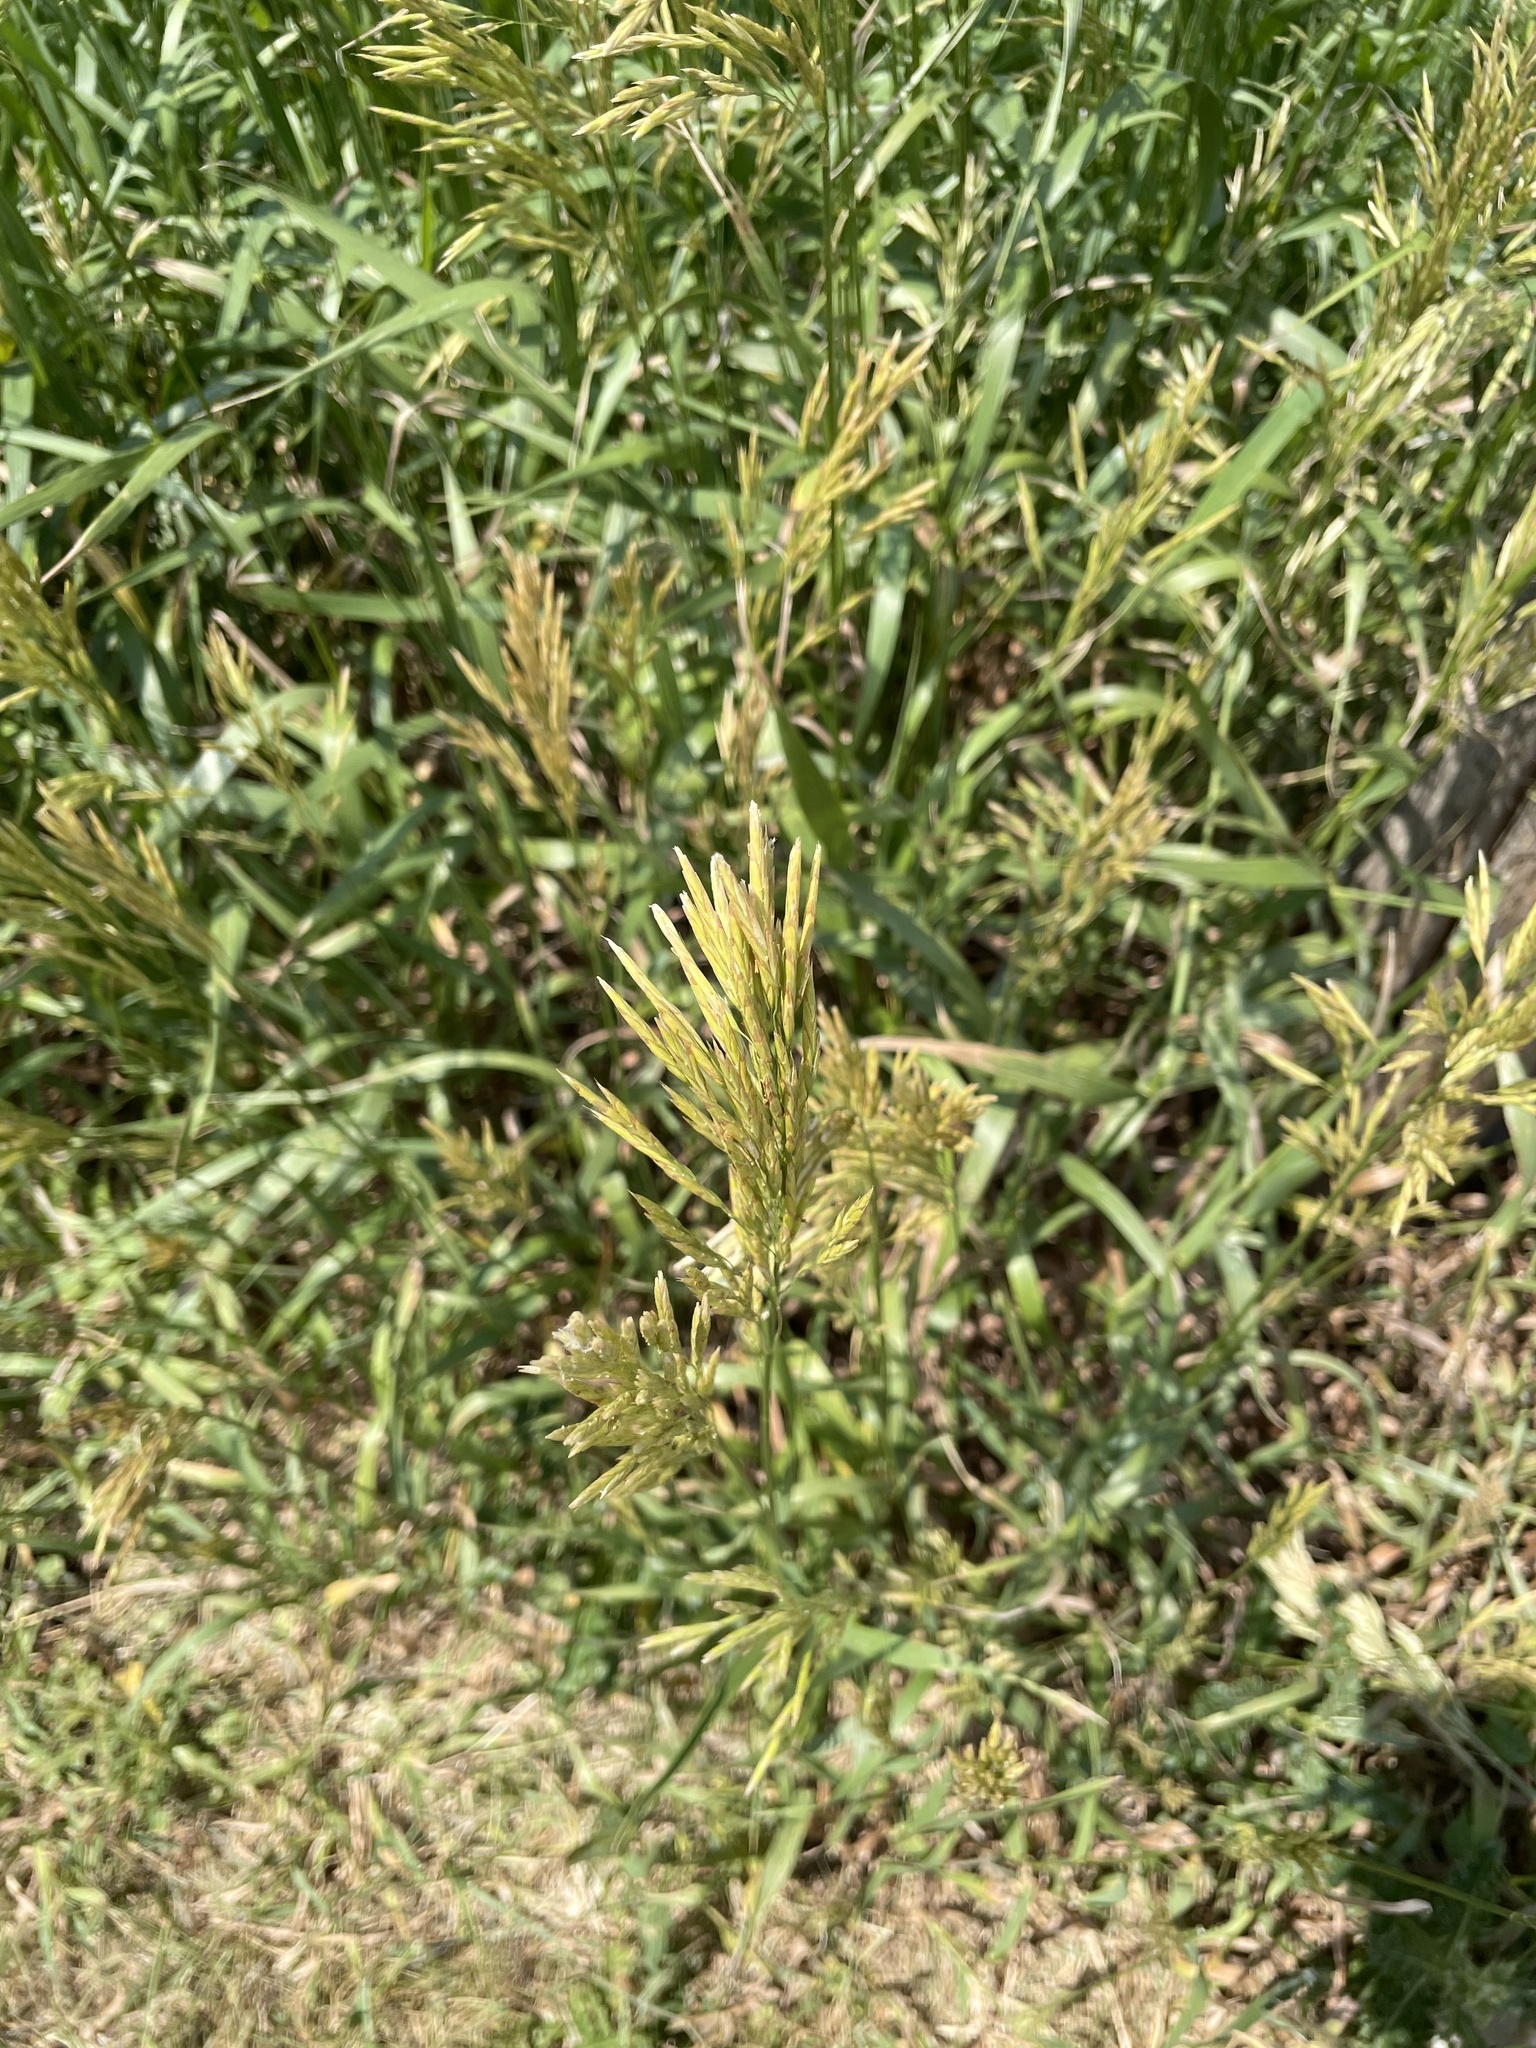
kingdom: Plantae
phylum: Tracheophyta
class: Liliopsida
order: Poales
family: Poaceae
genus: Bromus
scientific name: Bromus inermis
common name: Smooth brome
